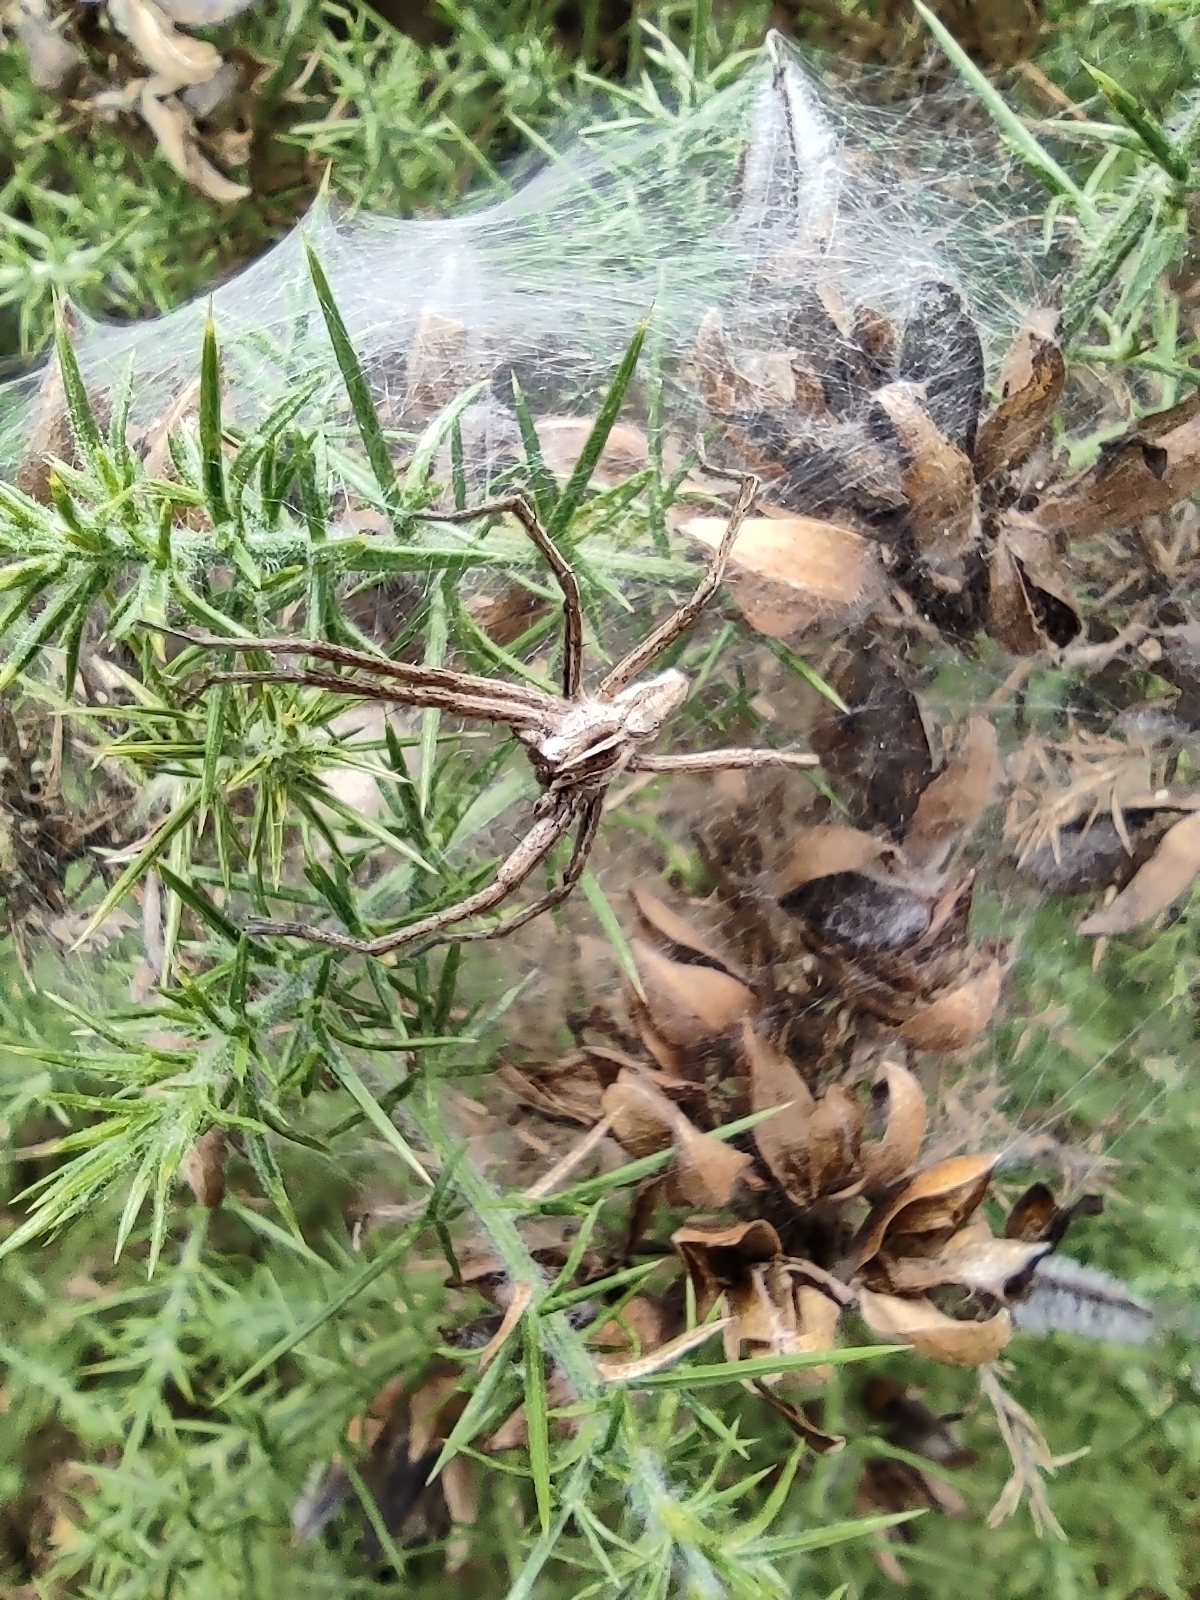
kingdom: Animalia
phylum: Arthropoda
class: Arachnida
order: Araneae
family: Pisauridae
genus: Pisaura
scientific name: Pisaura mirabilis
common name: Tent spider
